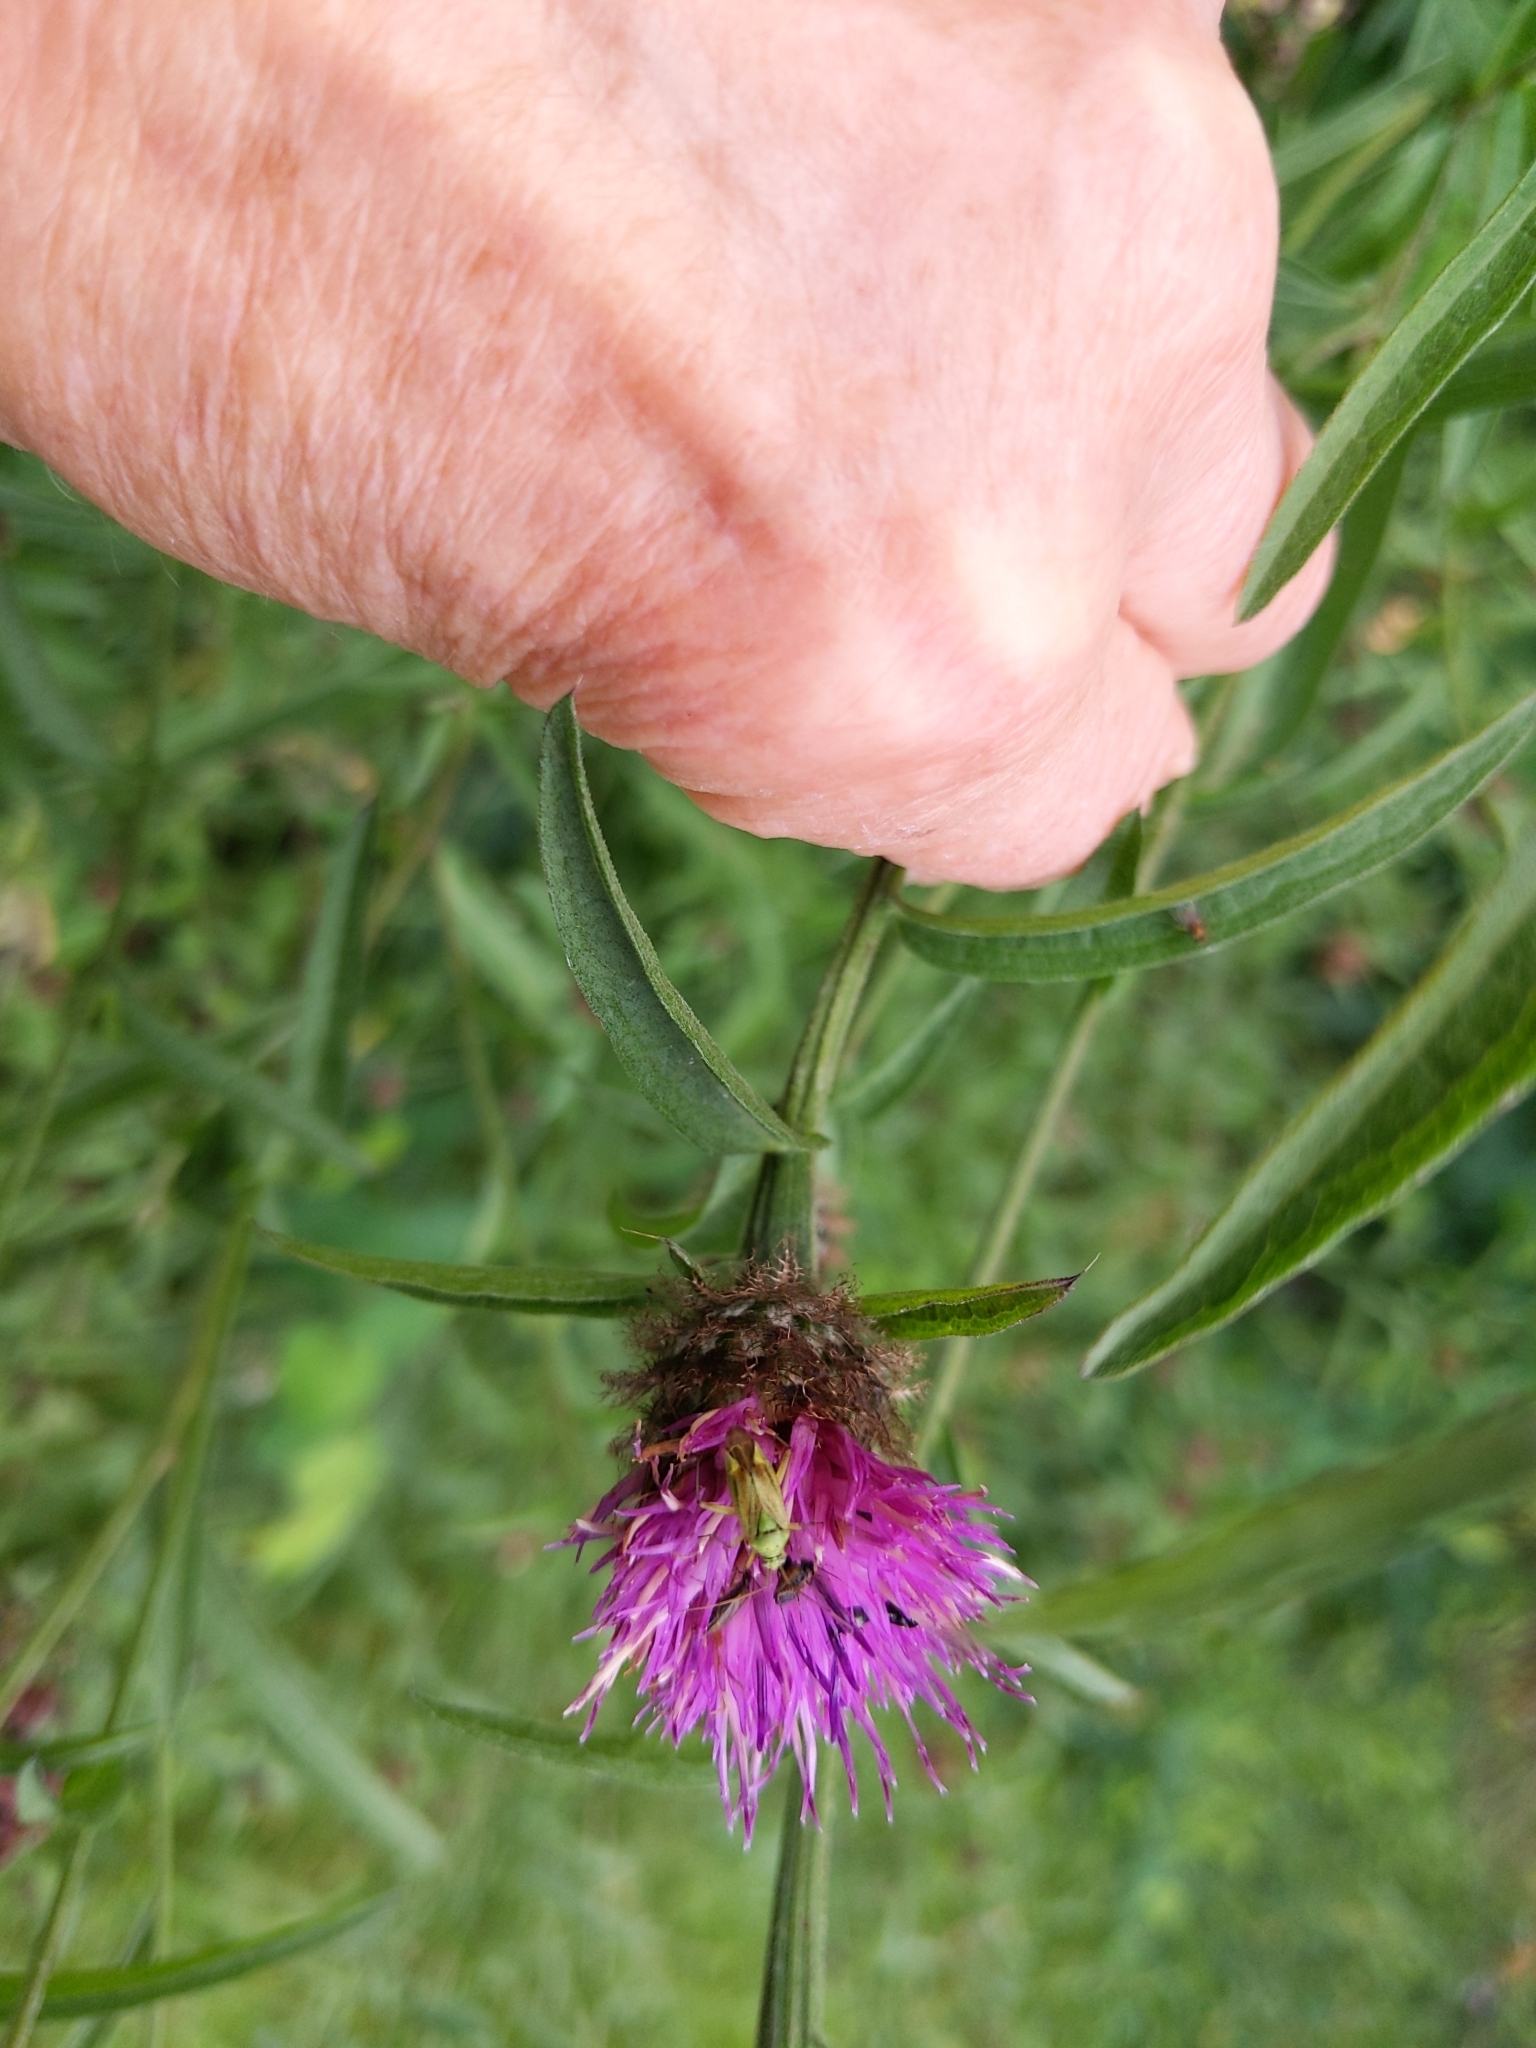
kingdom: Animalia
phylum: Arthropoda
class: Insecta
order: Hemiptera
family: Miridae
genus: Closterotomus
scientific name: Closterotomus norvegicus
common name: Plant bug
